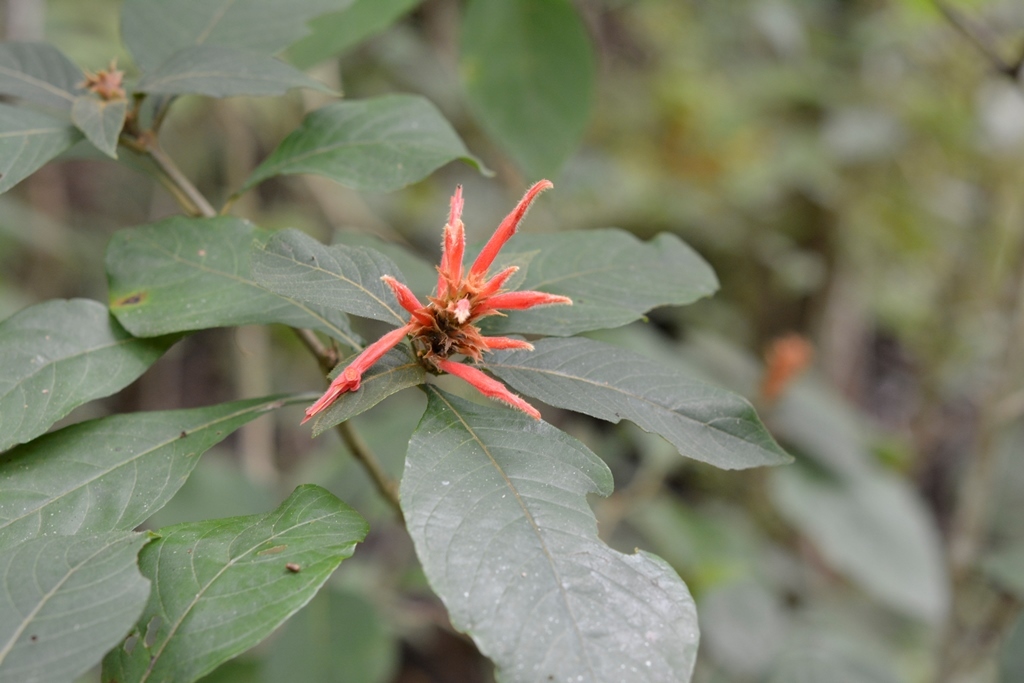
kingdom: Plantae
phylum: Tracheophyta
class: Magnoliopsida
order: Lamiales
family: Acanthaceae
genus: Aphelandra
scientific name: Aphelandra scabra
